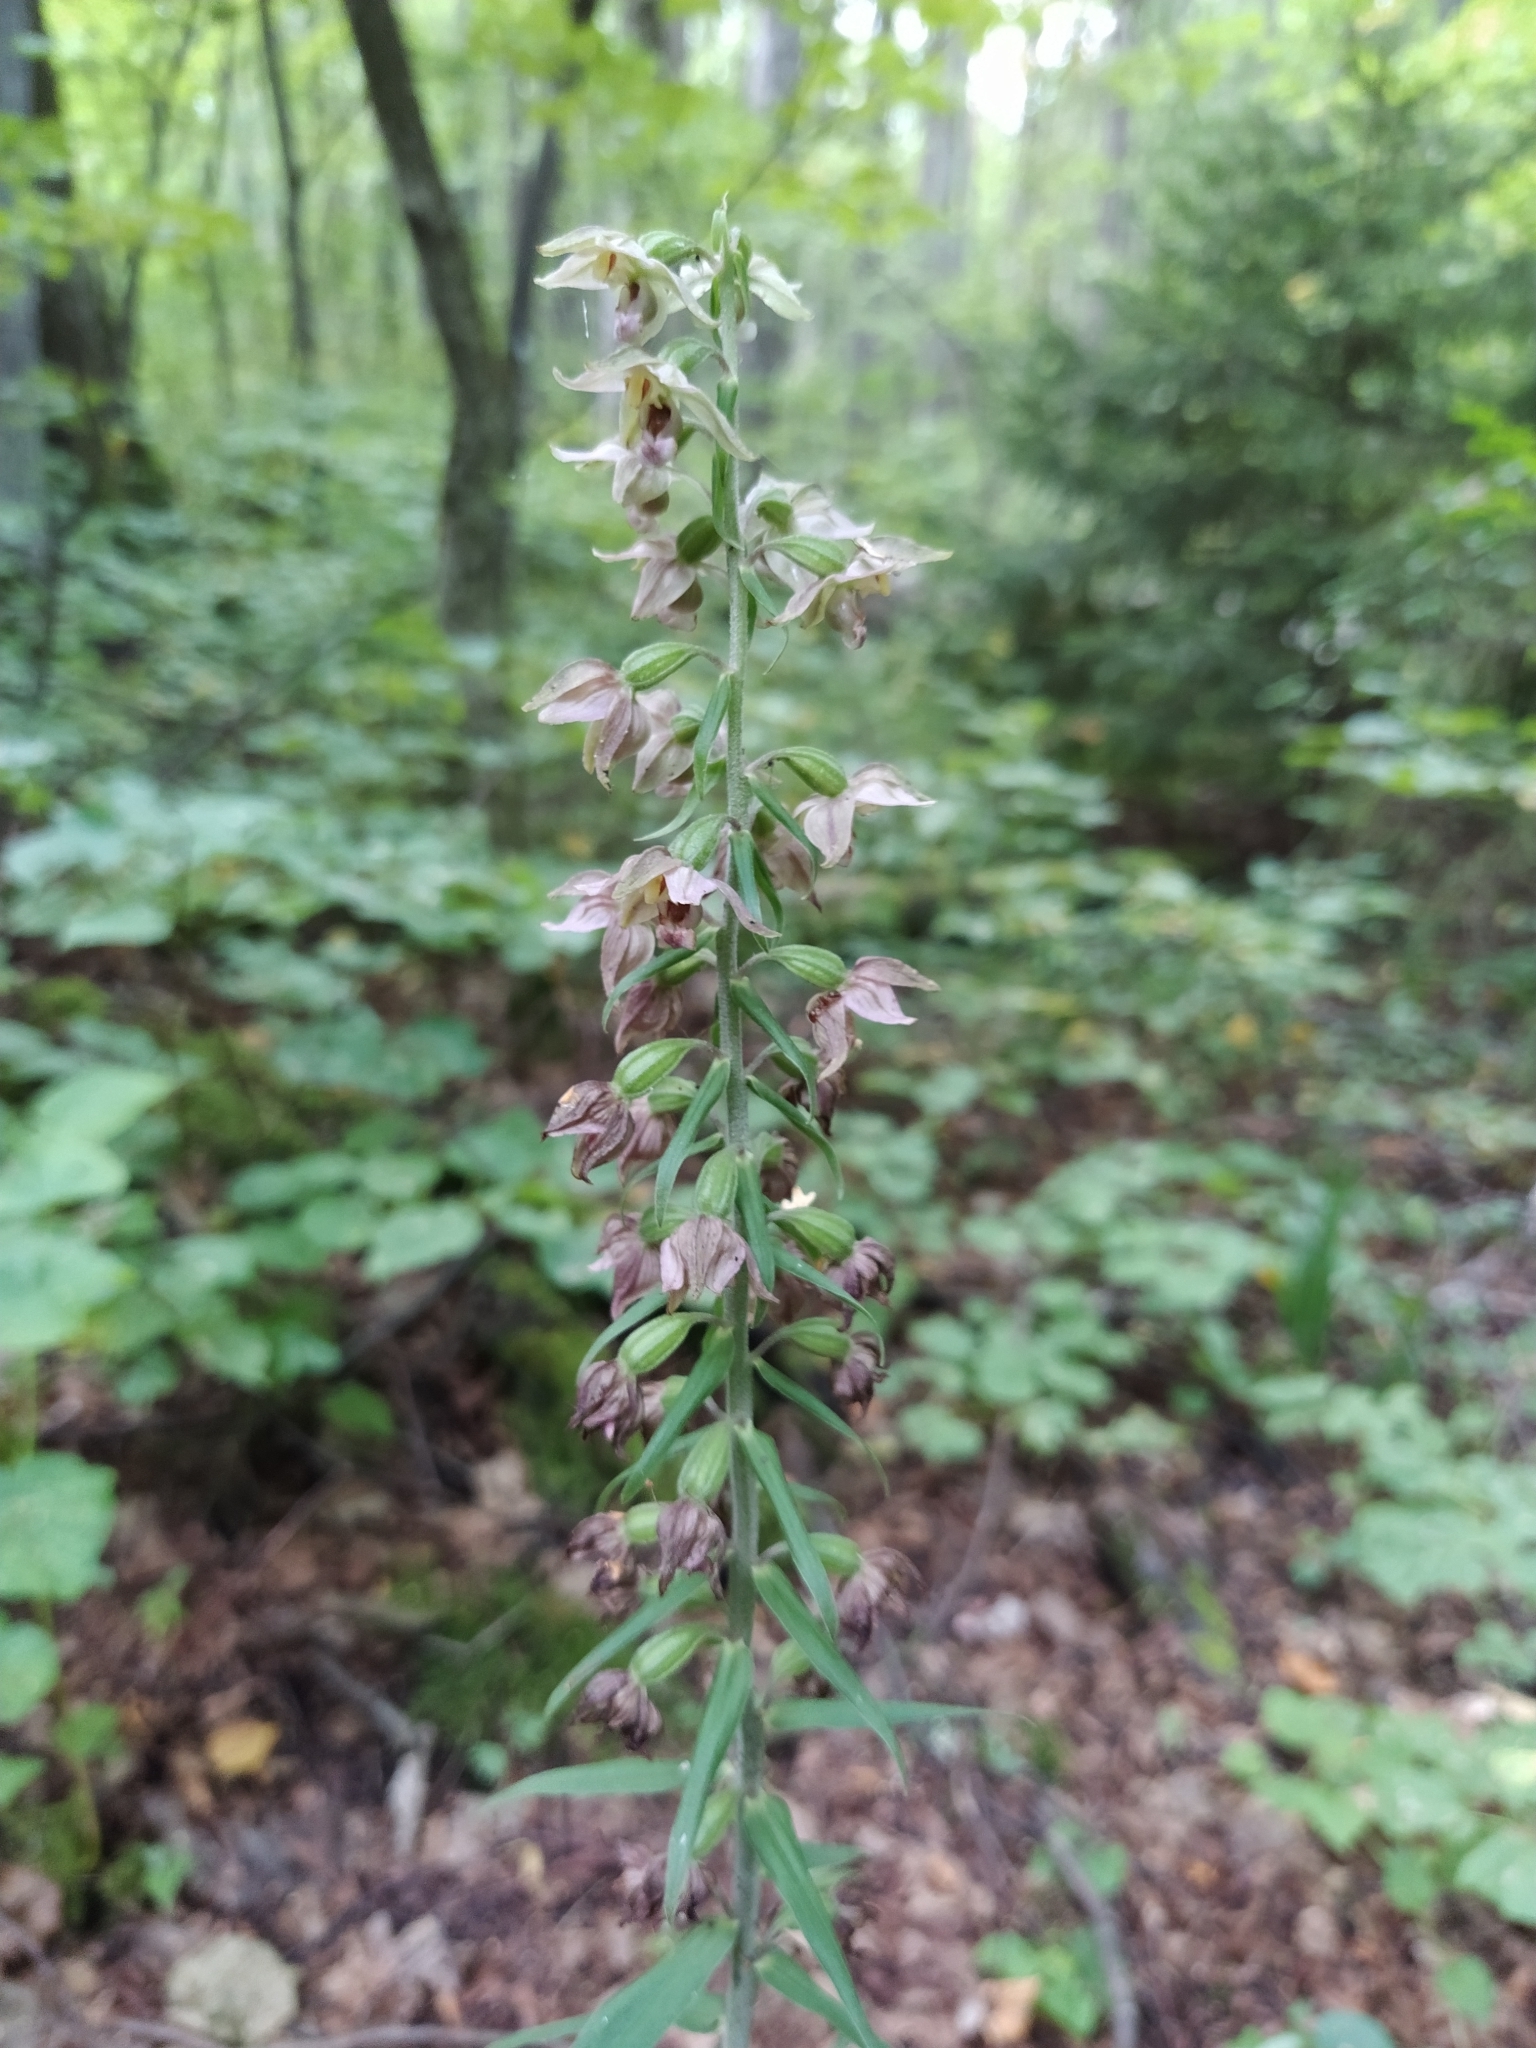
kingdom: Plantae
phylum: Tracheophyta
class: Liliopsida
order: Asparagales
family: Orchidaceae
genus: Epipactis
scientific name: Epipactis helleborine
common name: Broad-leaved helleborine
